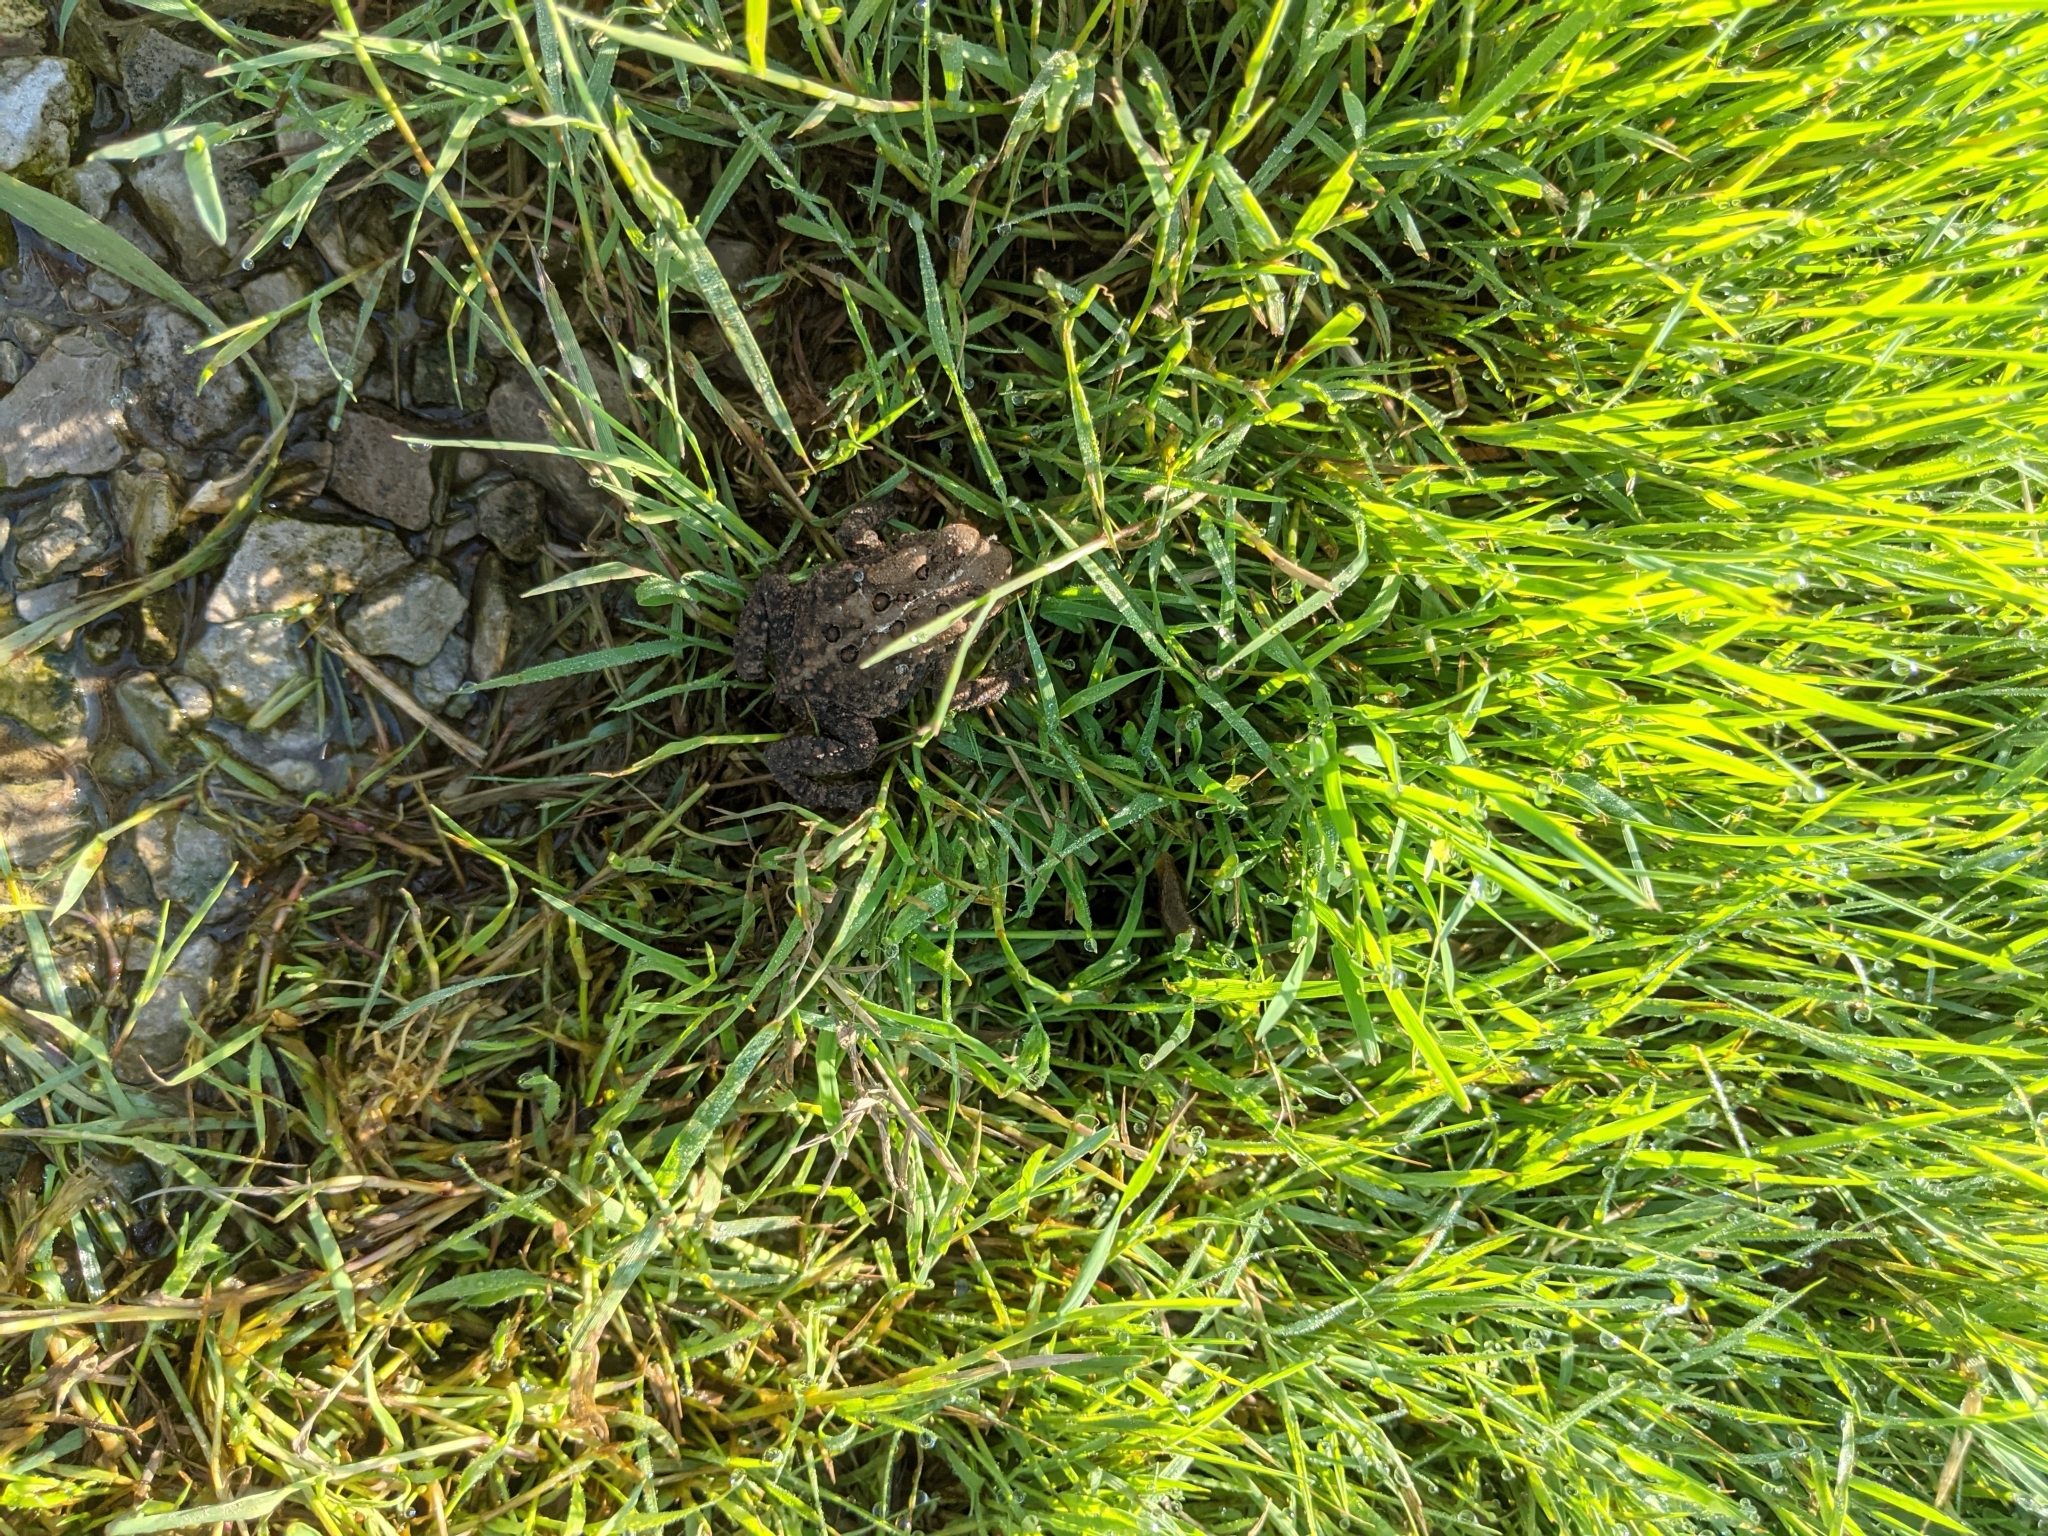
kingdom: Animalia
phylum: Chordata
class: Amphibia
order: Anura
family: Bufonidae
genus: Anaxyrus
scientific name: Anaxyrus americanus
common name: American toad
